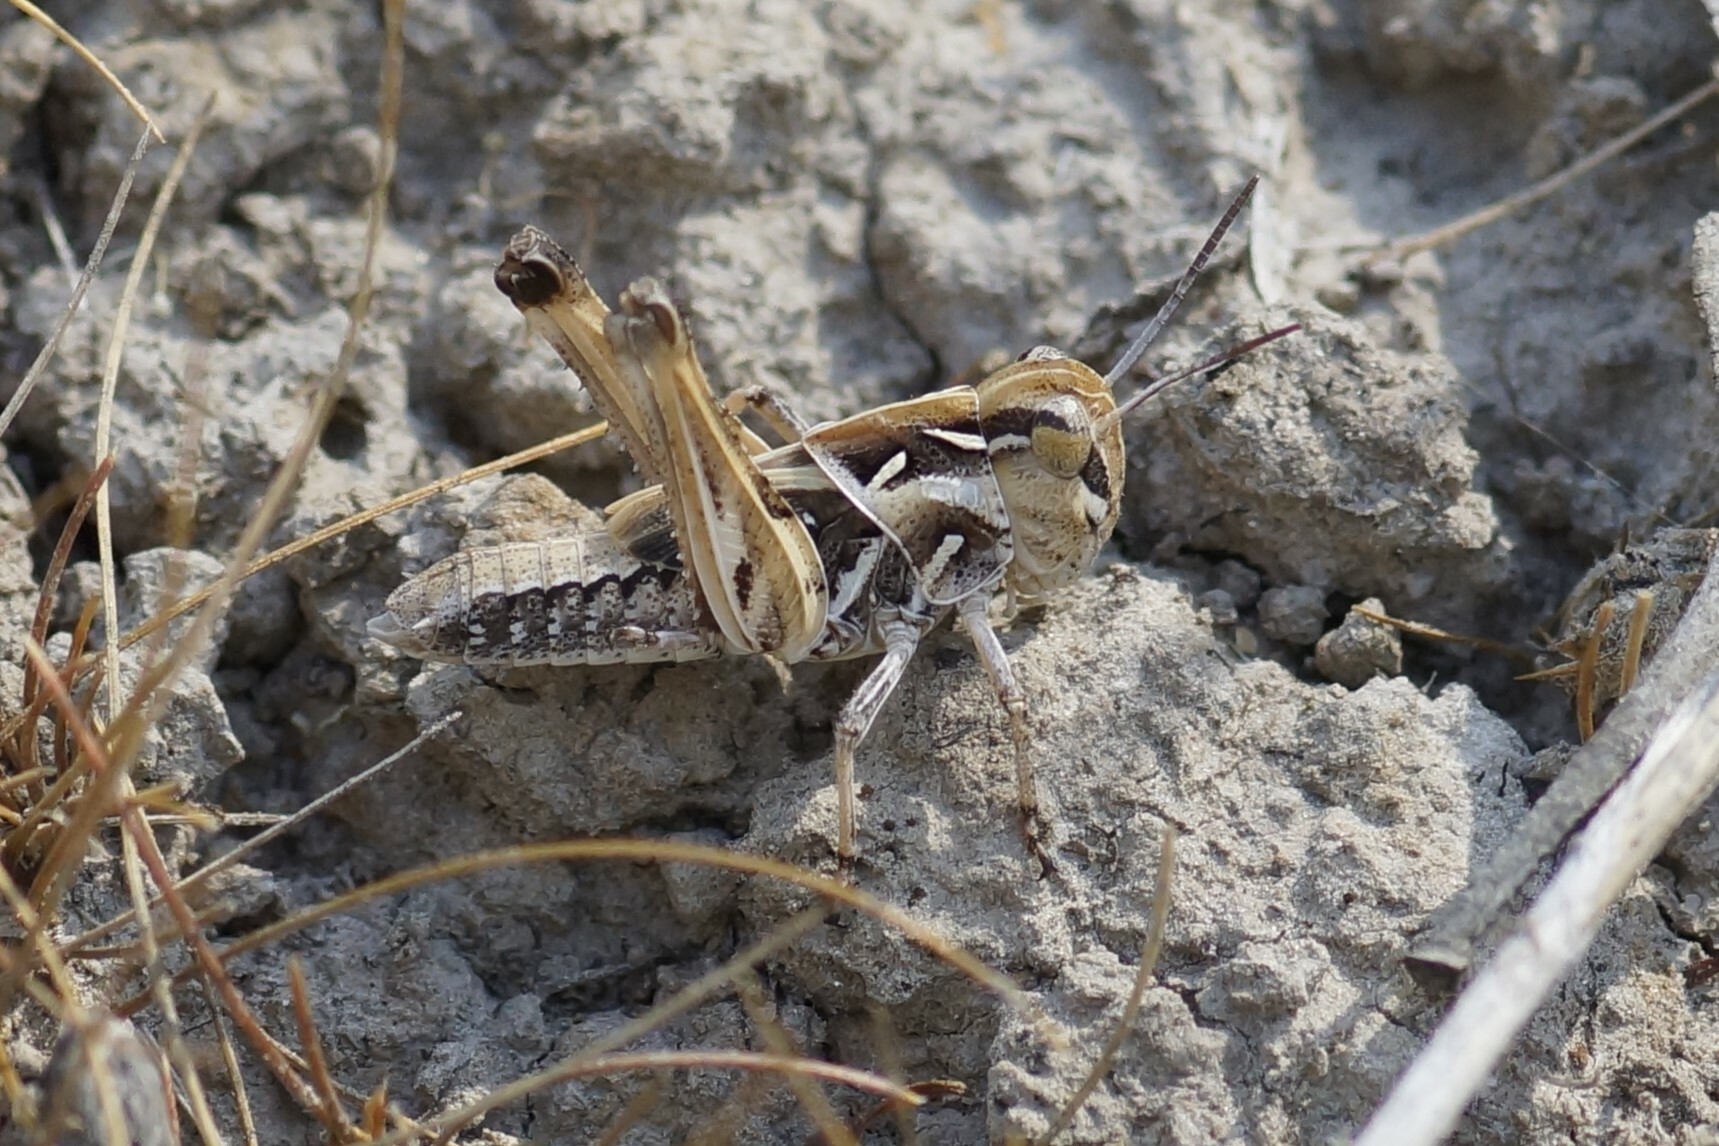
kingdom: Animalia
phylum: Arthropoda
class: Insecta
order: Orthoptera
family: Acrididae
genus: Oedaleus
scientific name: Oedaleus australis
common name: Eastern oedaleus
